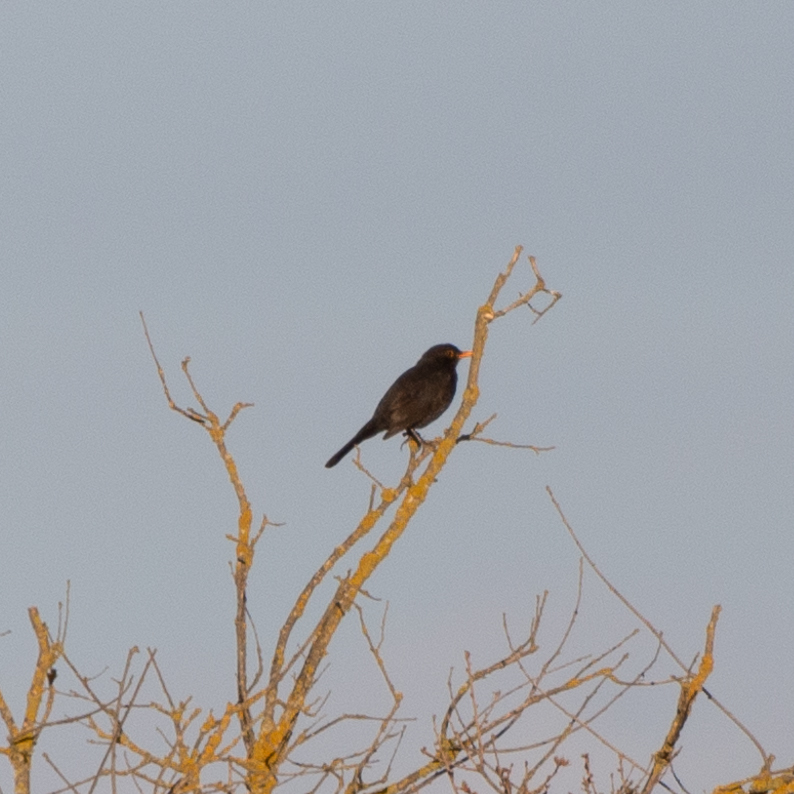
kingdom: Animalia
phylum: Chordata
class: Aves
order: Passeriformes
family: Turdidae
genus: Turdus
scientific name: Turdus merula
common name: Common blackbird
